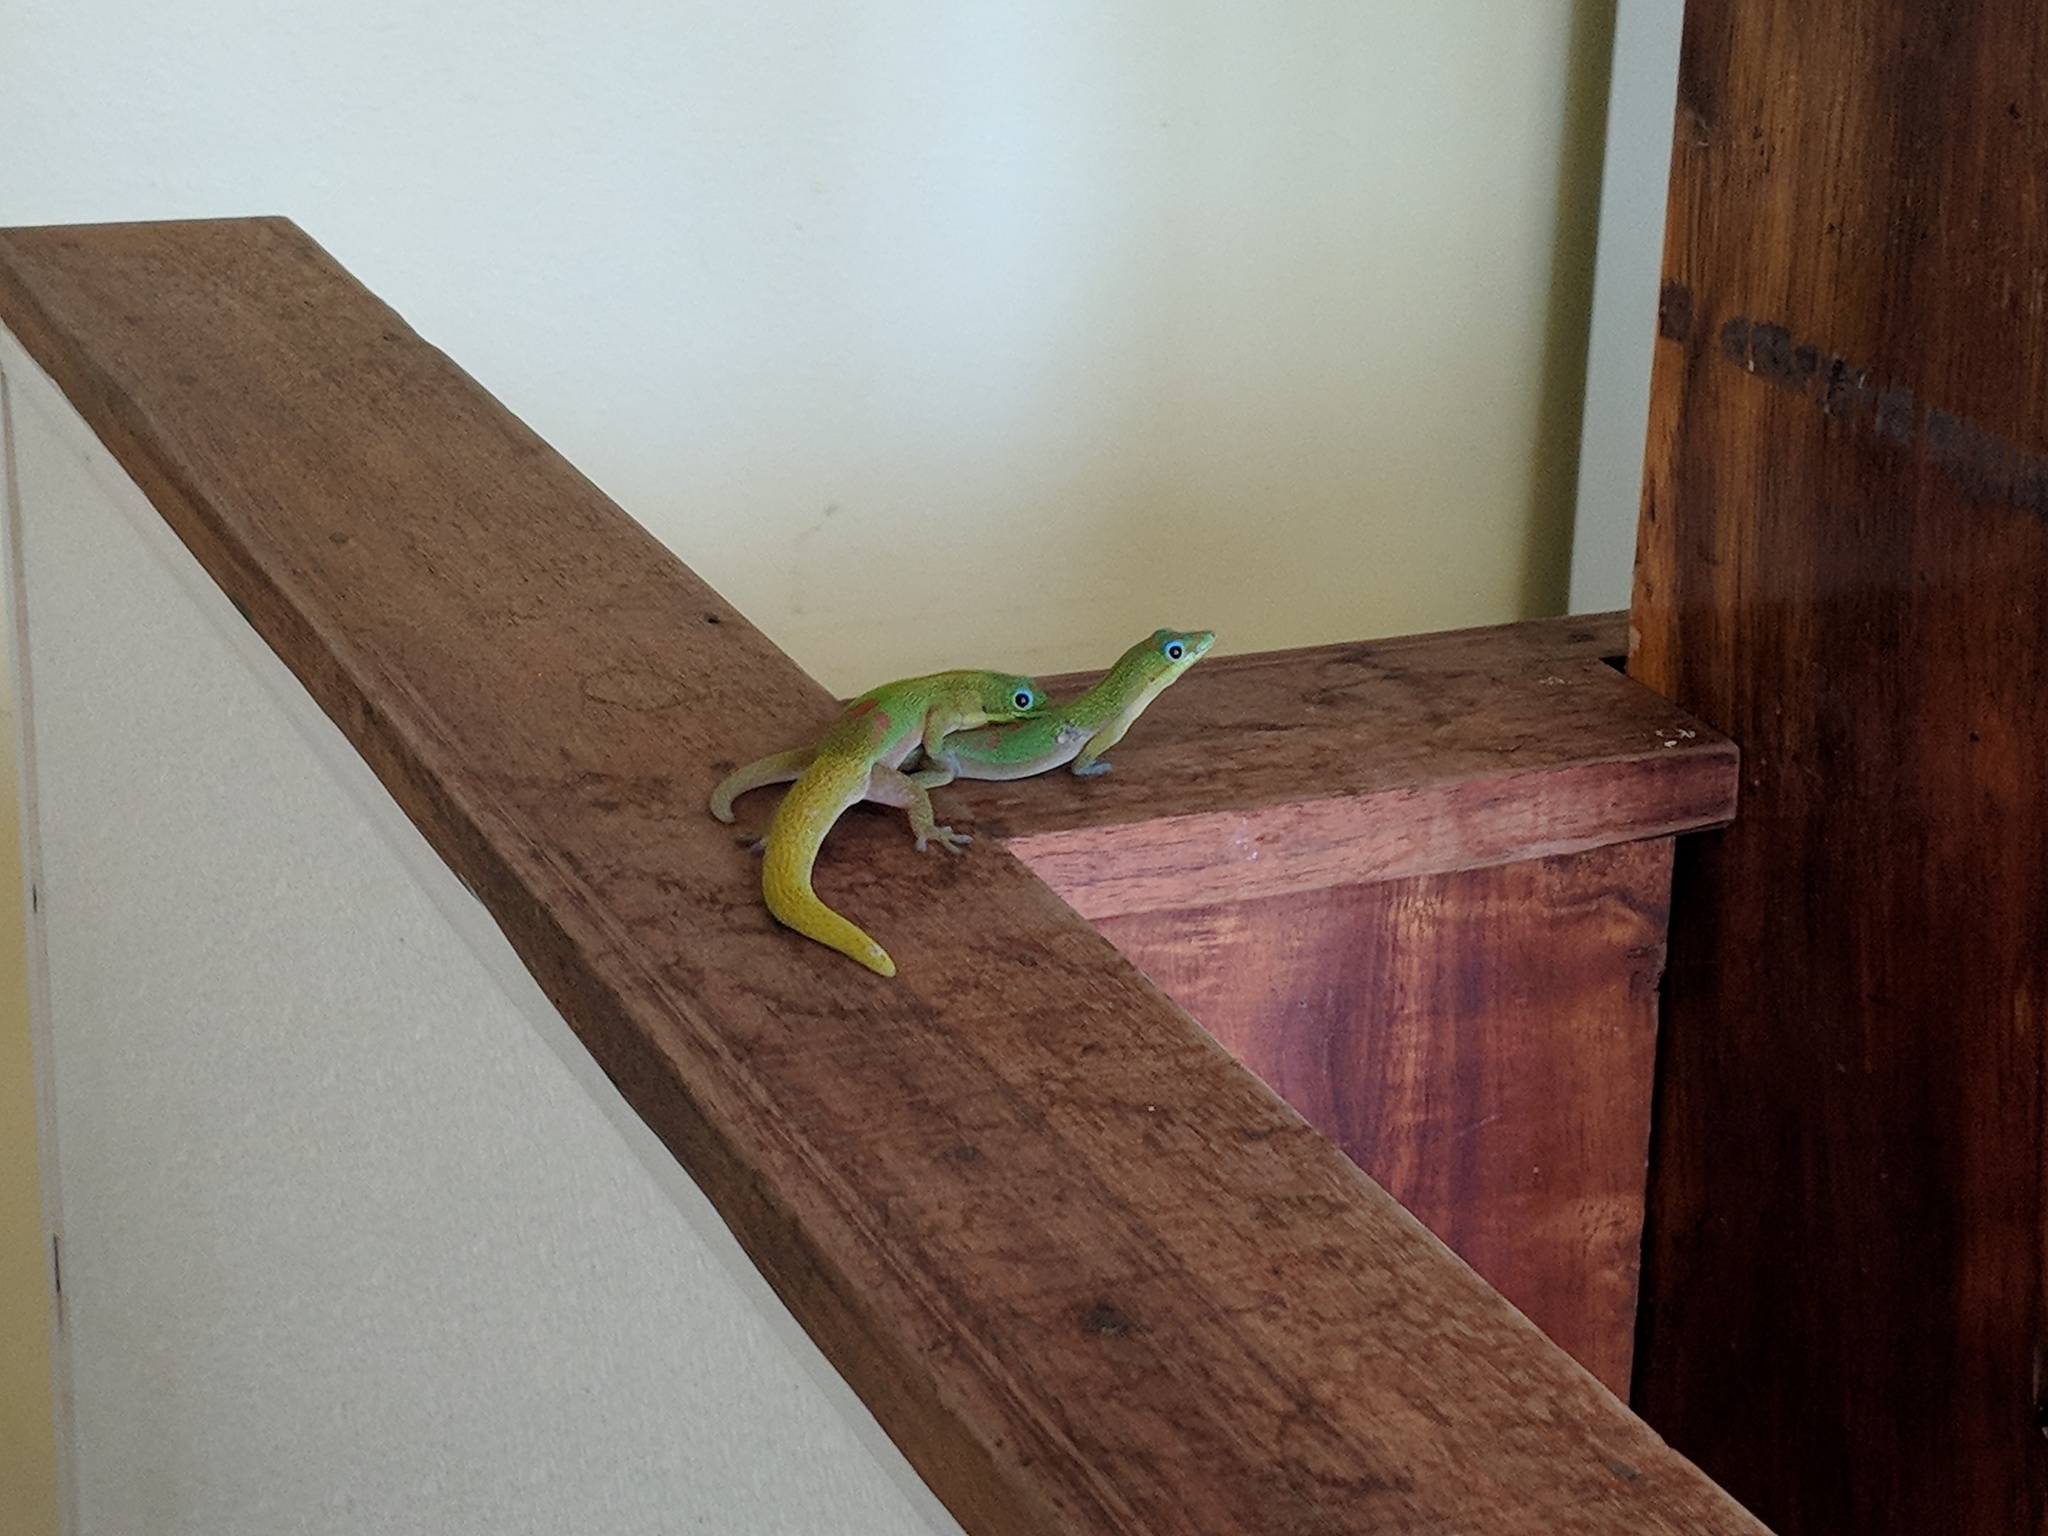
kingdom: Animalia
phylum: Chordata
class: Squamata
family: Gekkonidae
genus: Phelsuma
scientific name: Phelsuma laticauda
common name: Gold dust day gecko
